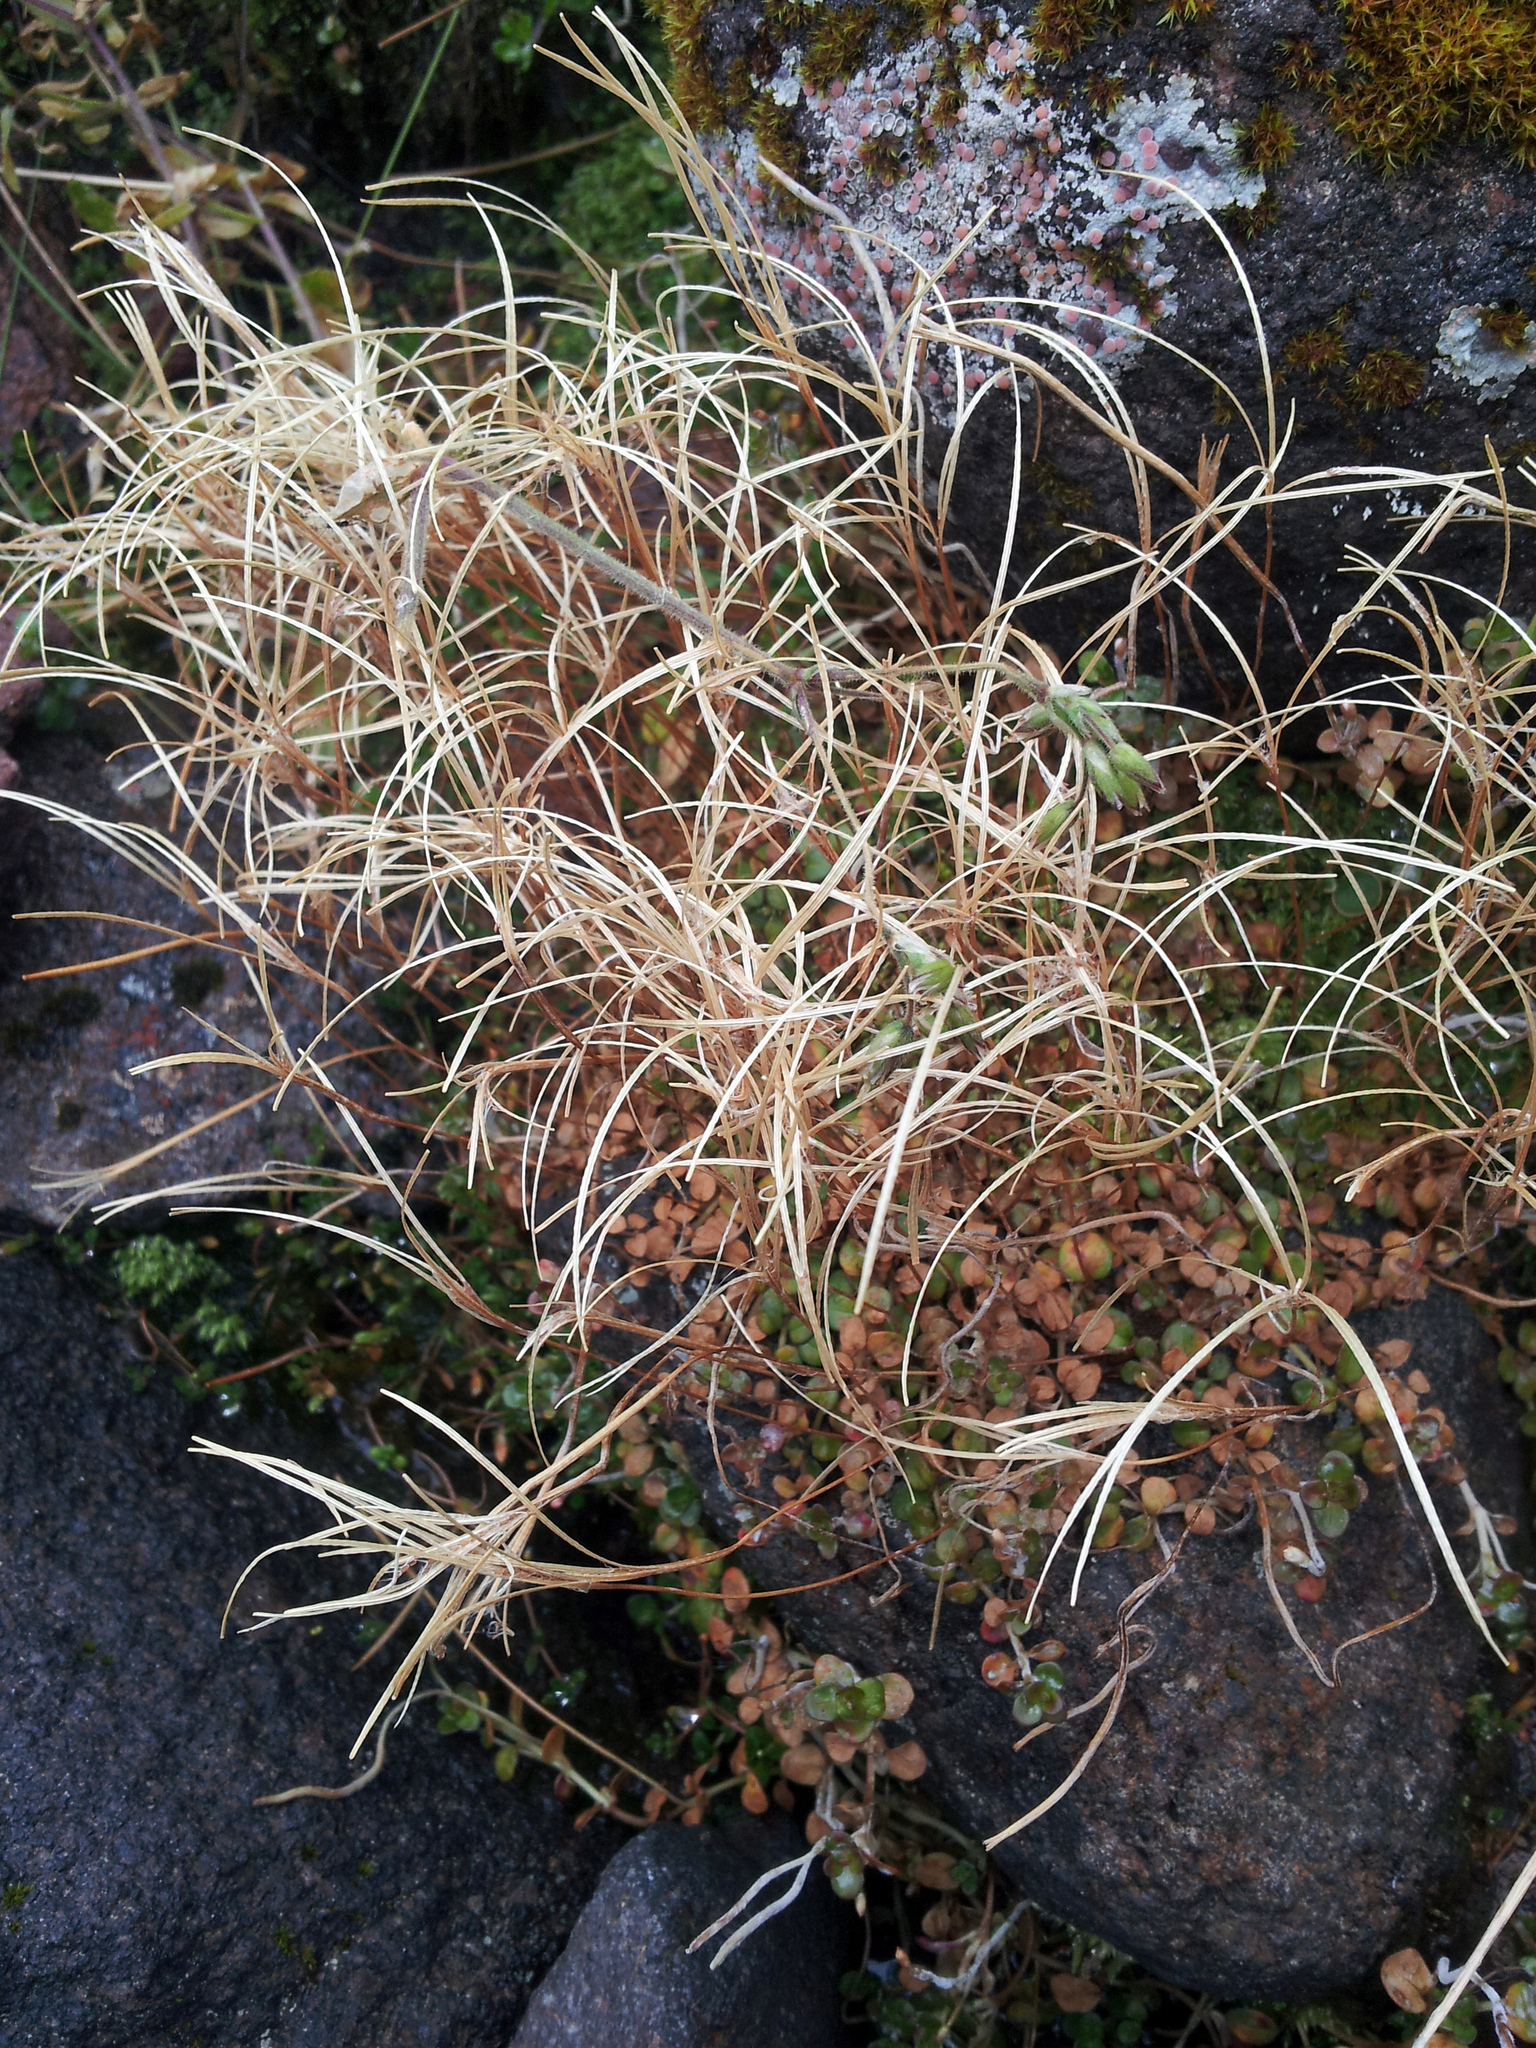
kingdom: Plantae
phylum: Tracheophyta
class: Magnoliopsida
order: Myrtales
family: Onagraceae
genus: Epilobium
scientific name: Epilobium brunnescens
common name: New zealand willowherb
